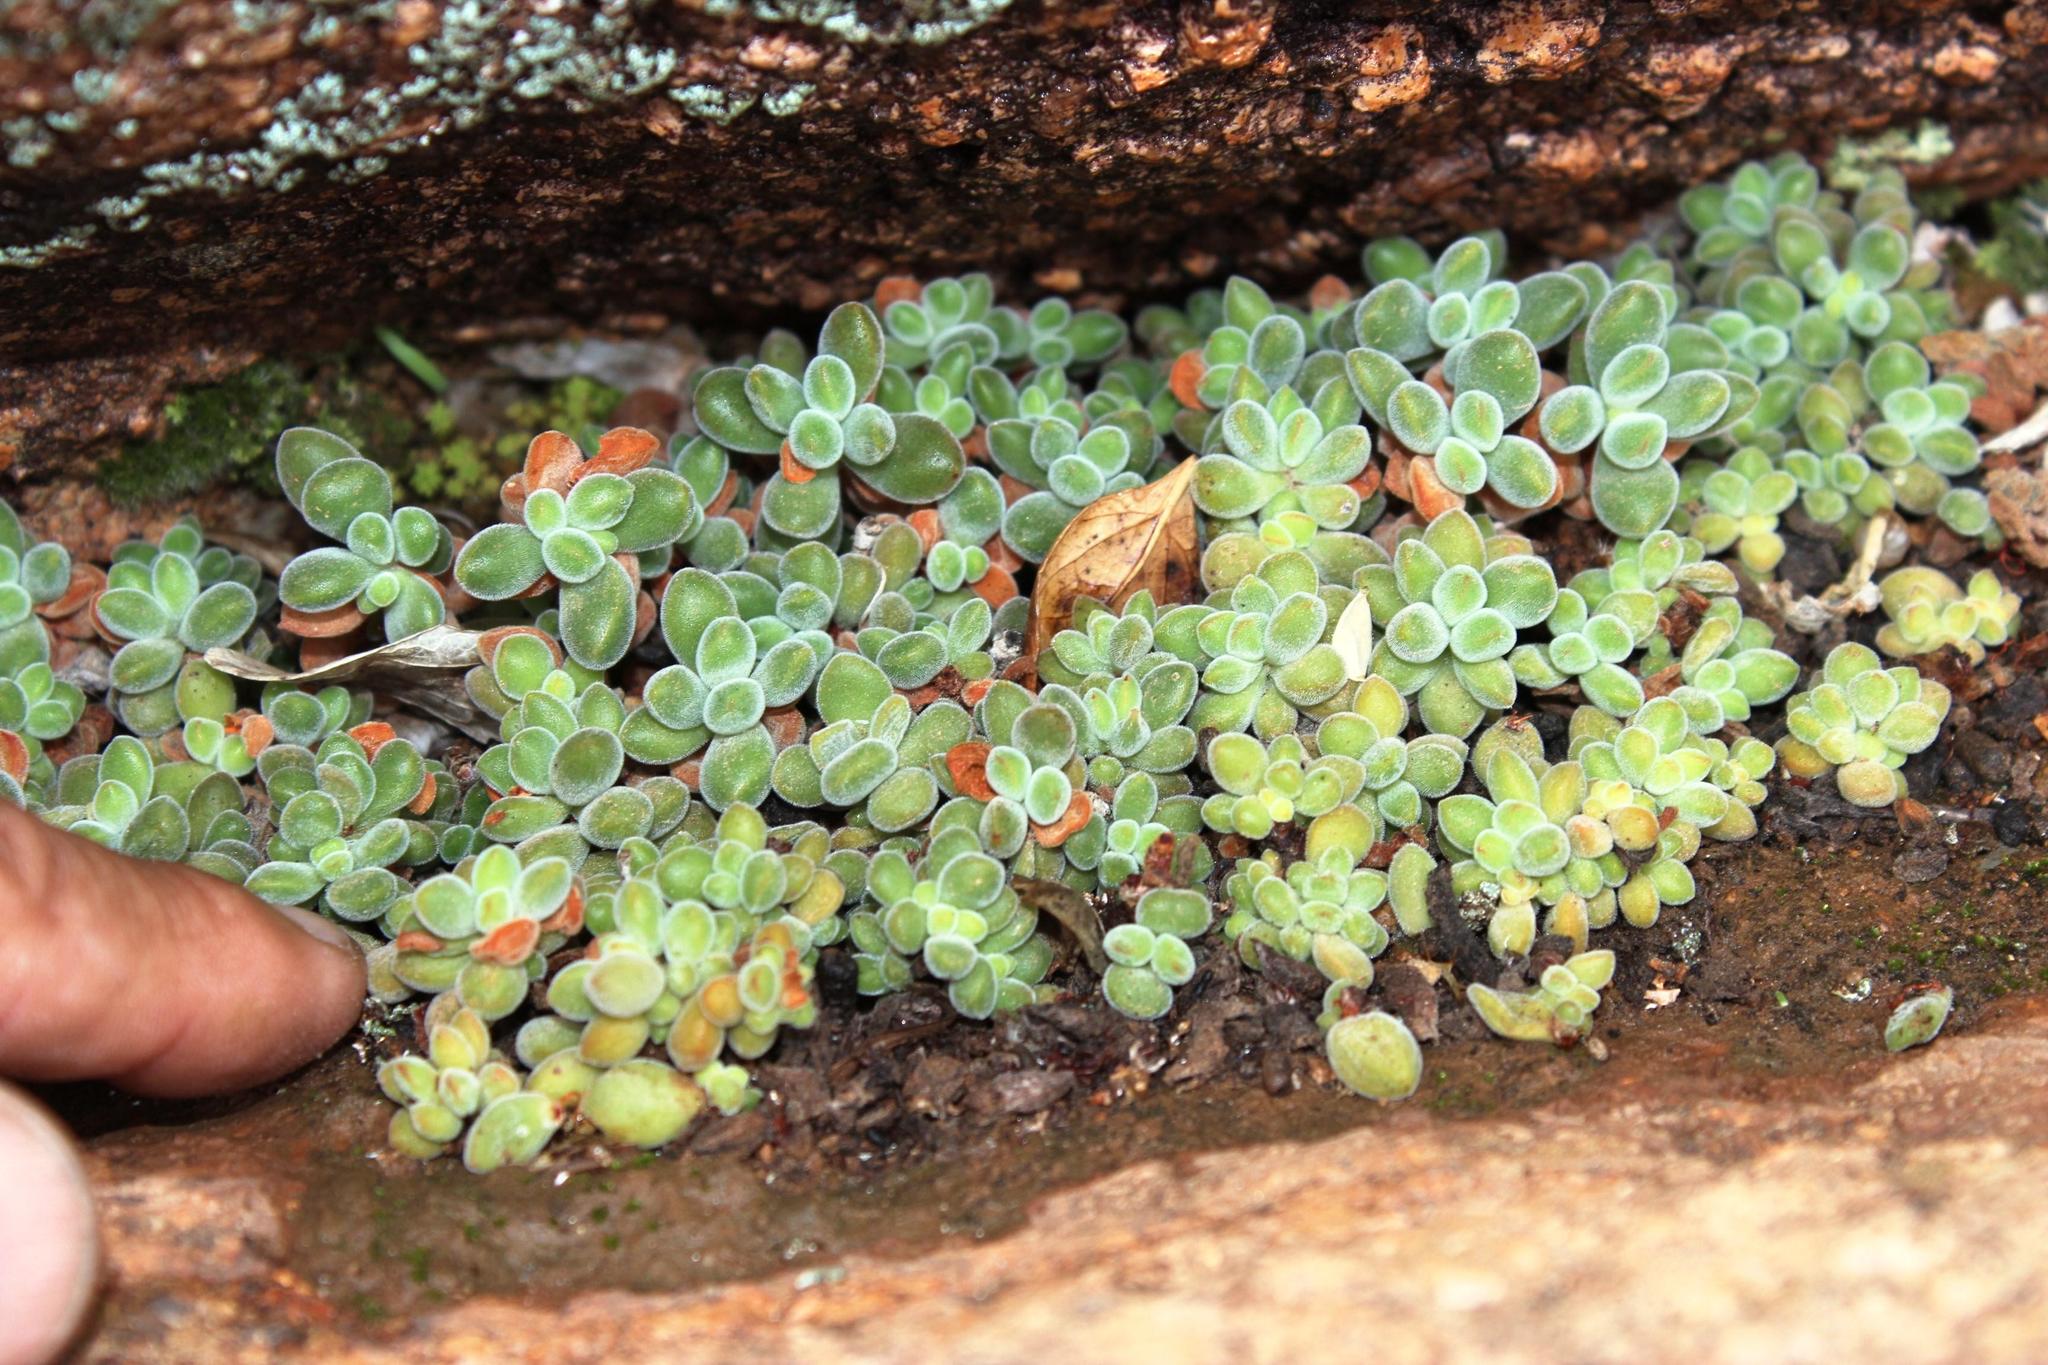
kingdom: Plantae
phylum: Tracheophyta
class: Magnoliopsida
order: Saxifragales
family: Crassulaceae
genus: Crassula
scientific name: Crassula sericea
